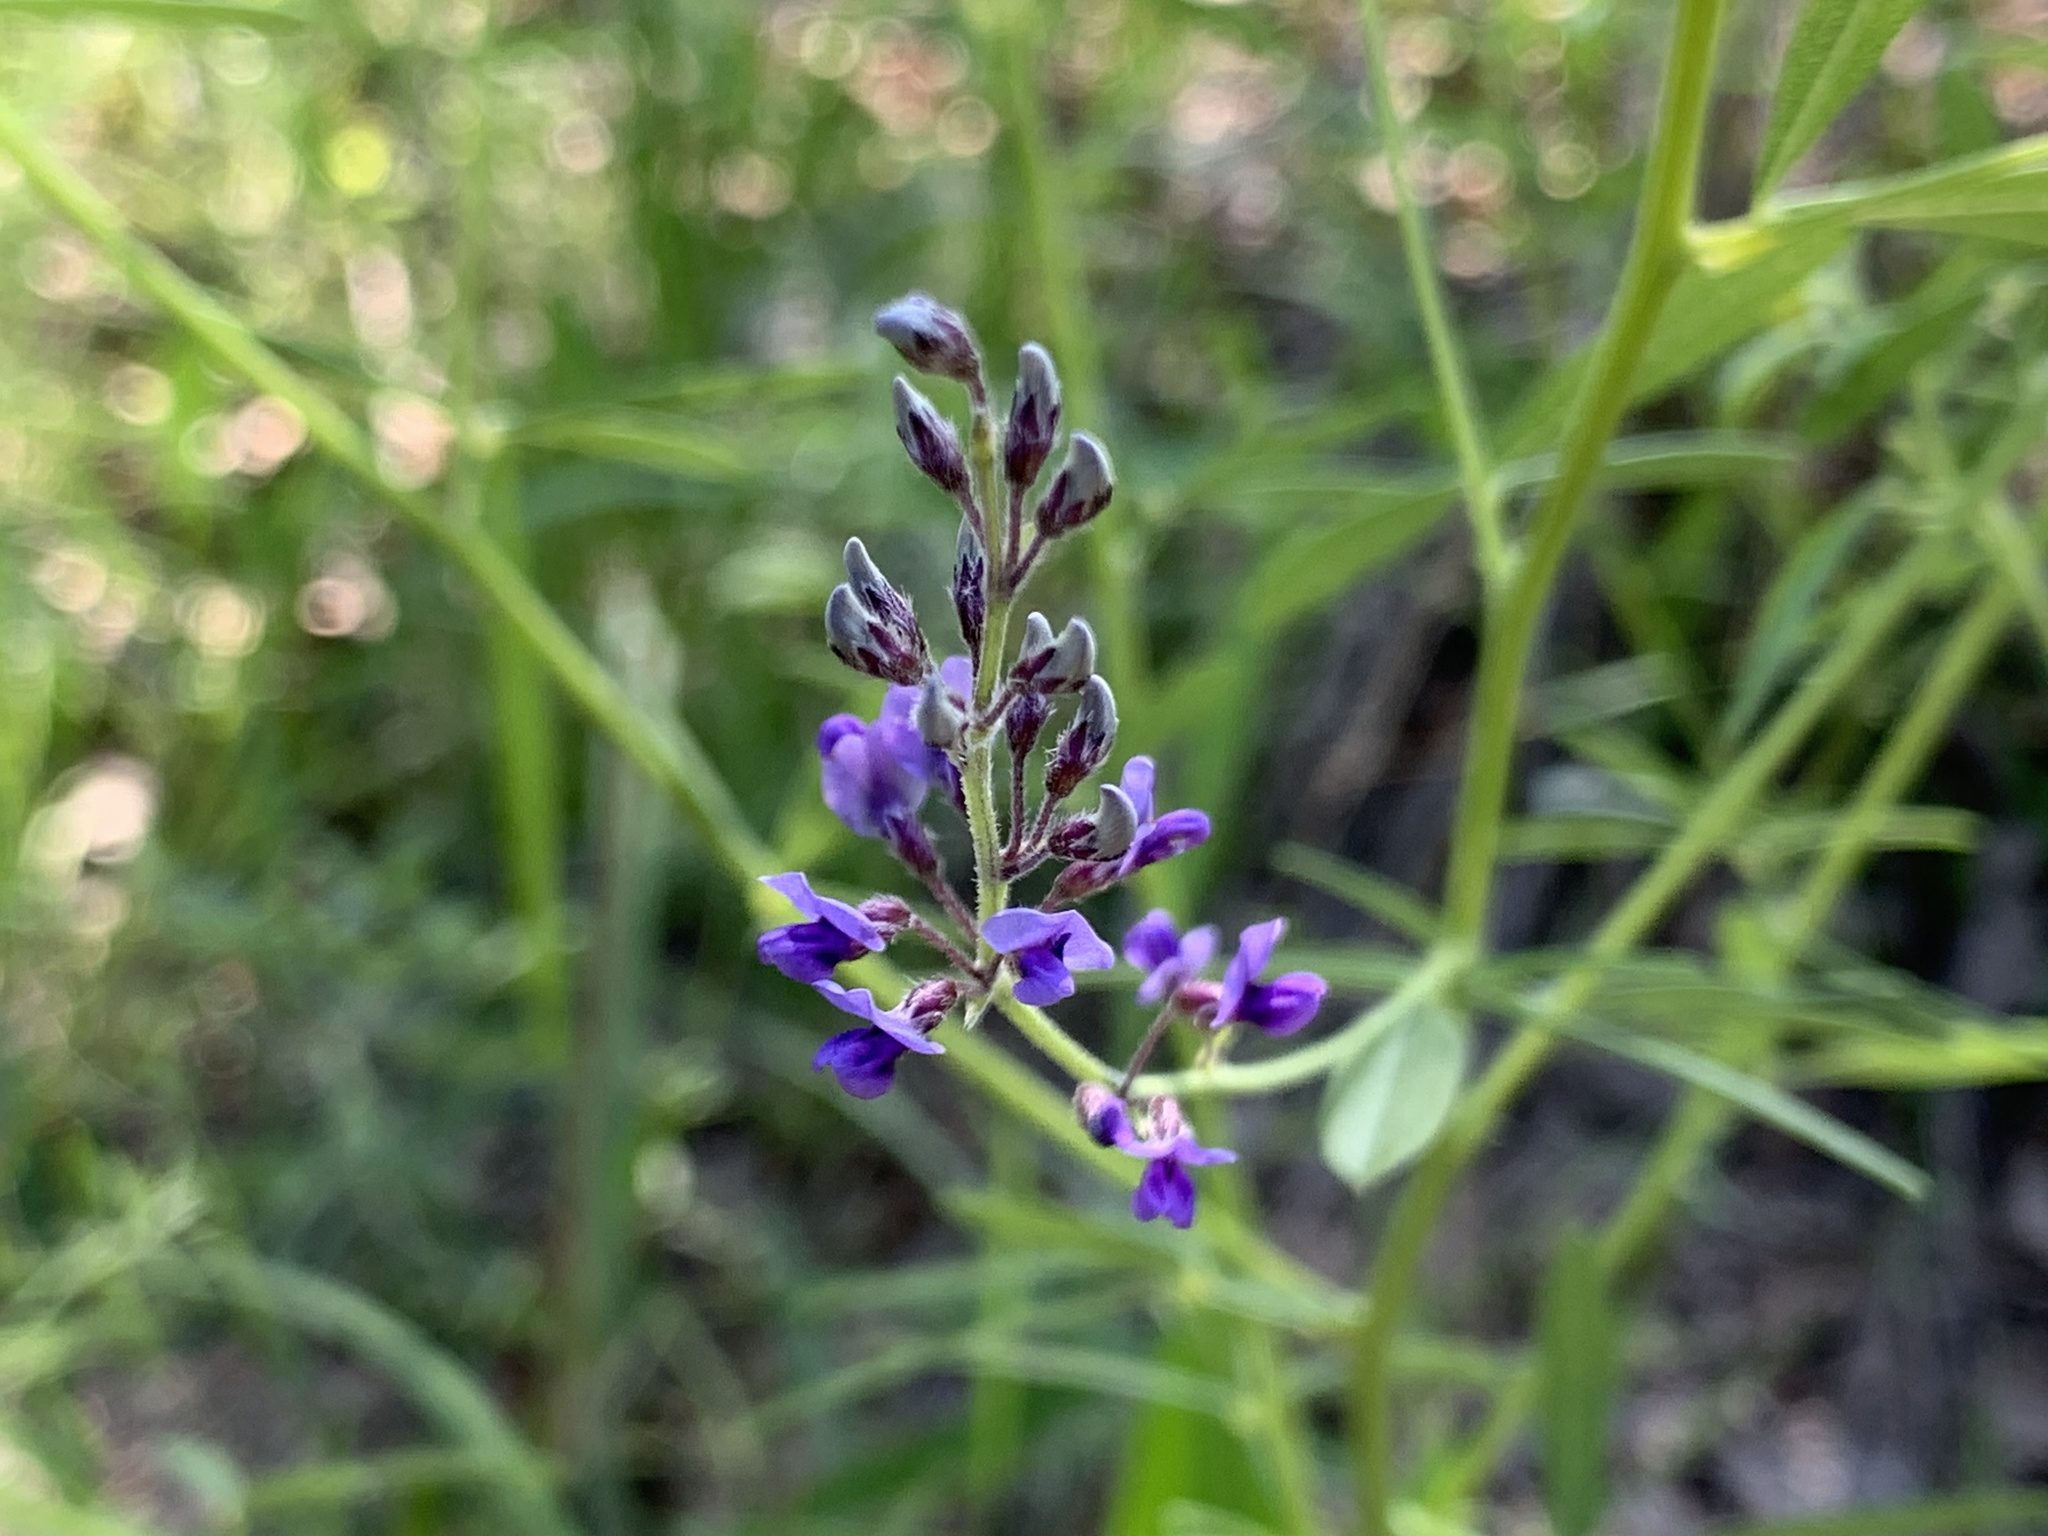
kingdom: Plantae
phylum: Tracheophyta
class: Magnoliopsida
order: Fabales
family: Fabaceae
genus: Pediomelum
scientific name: Pediomelum tenuiflorum
